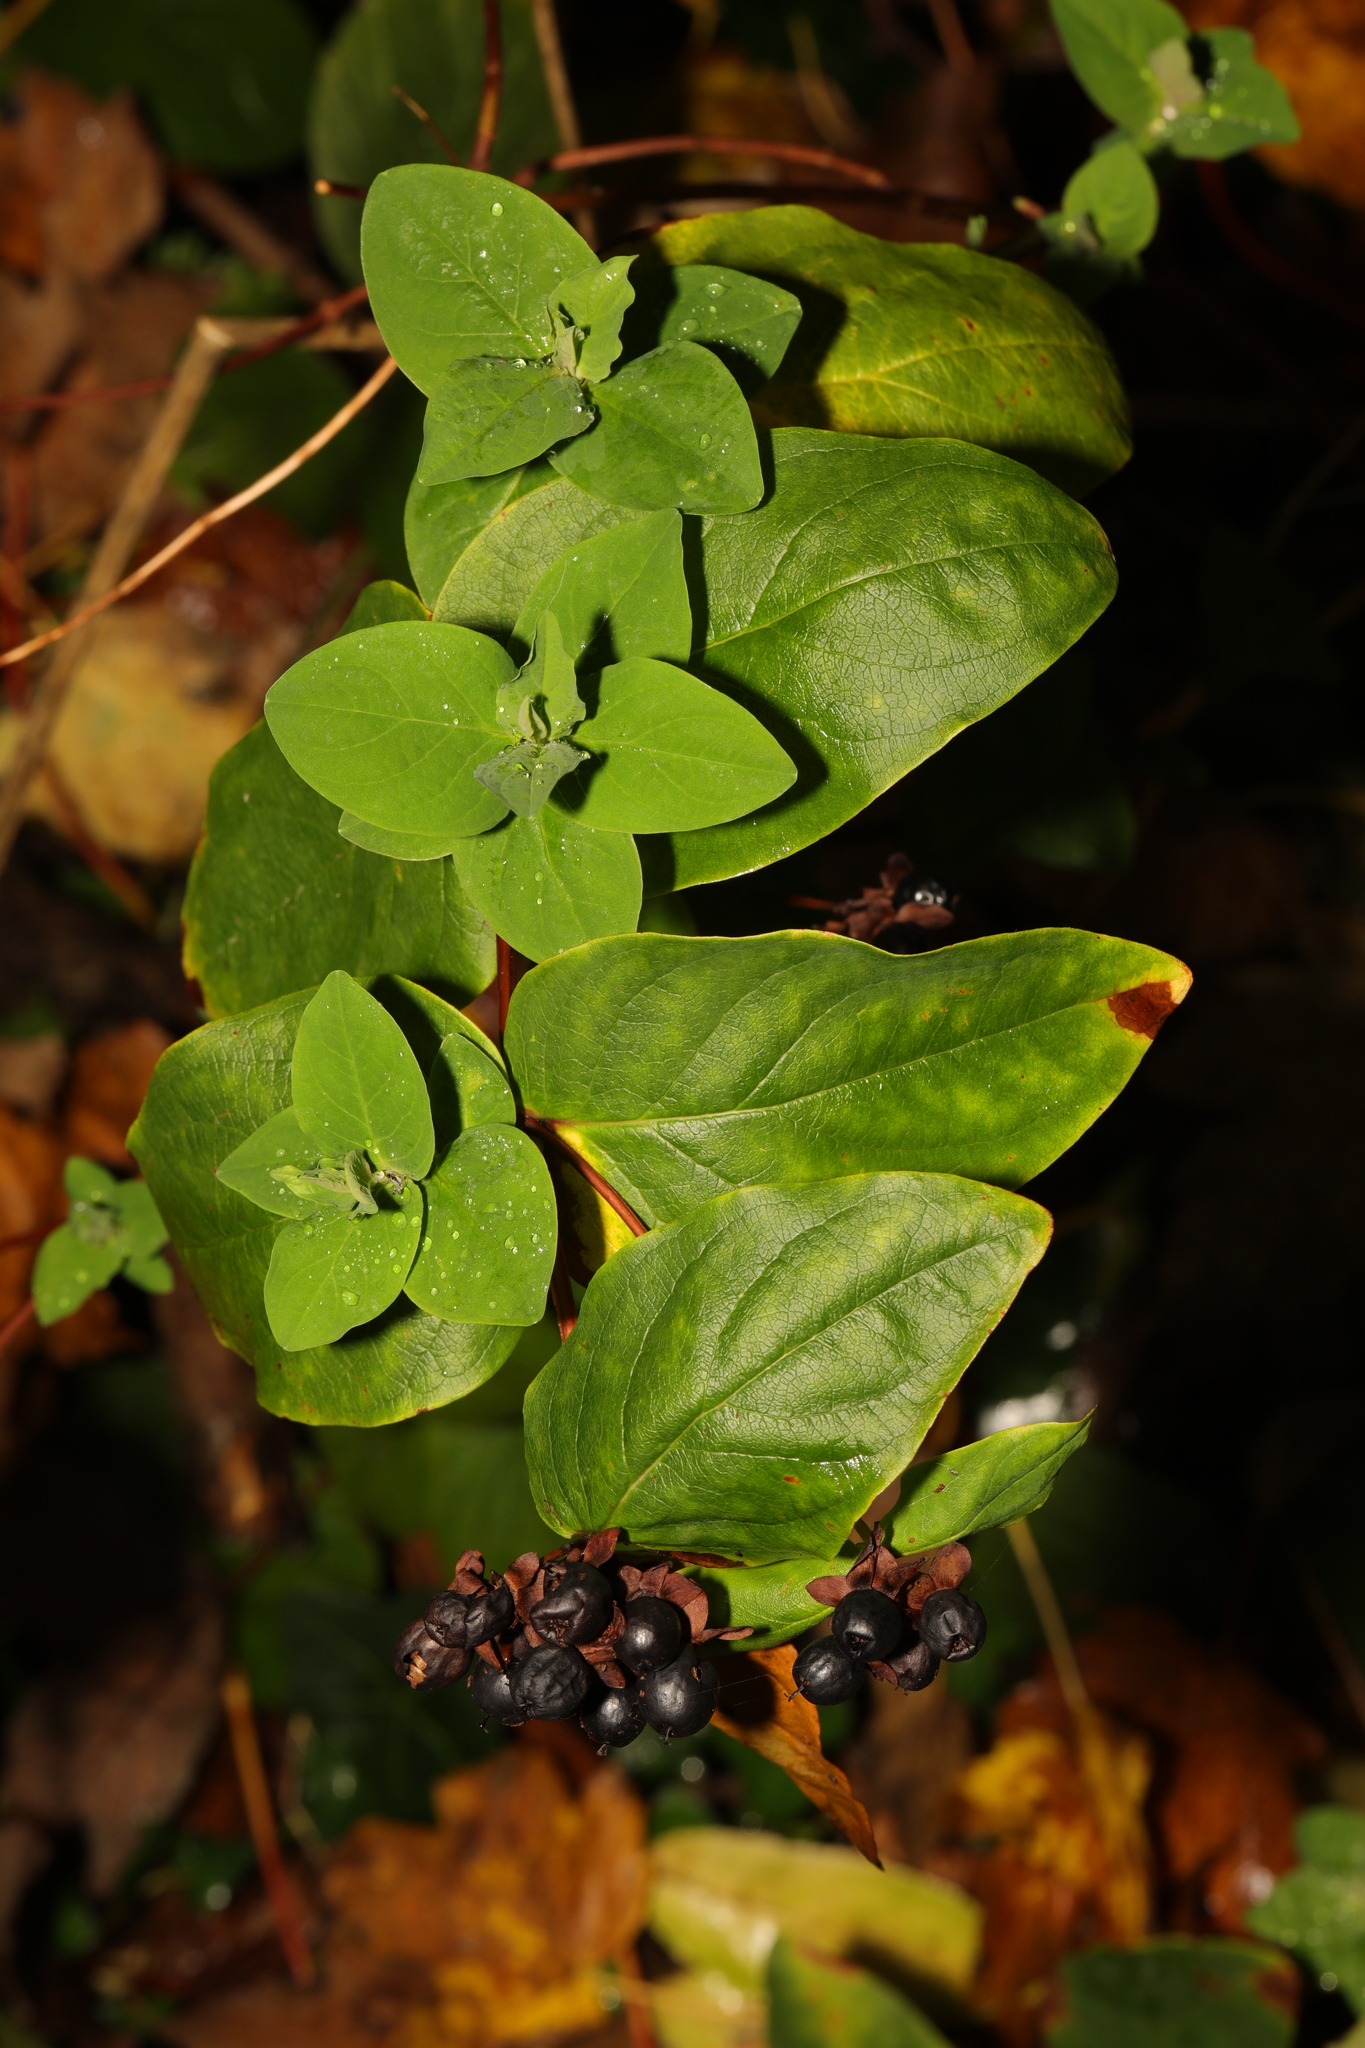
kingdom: Plantae
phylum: Tracheophyta
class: Magnoliopsida
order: Malpighiales
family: Hypericaceae
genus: Hypericum
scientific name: Hypericum androsaemum
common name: Sweet-amber
